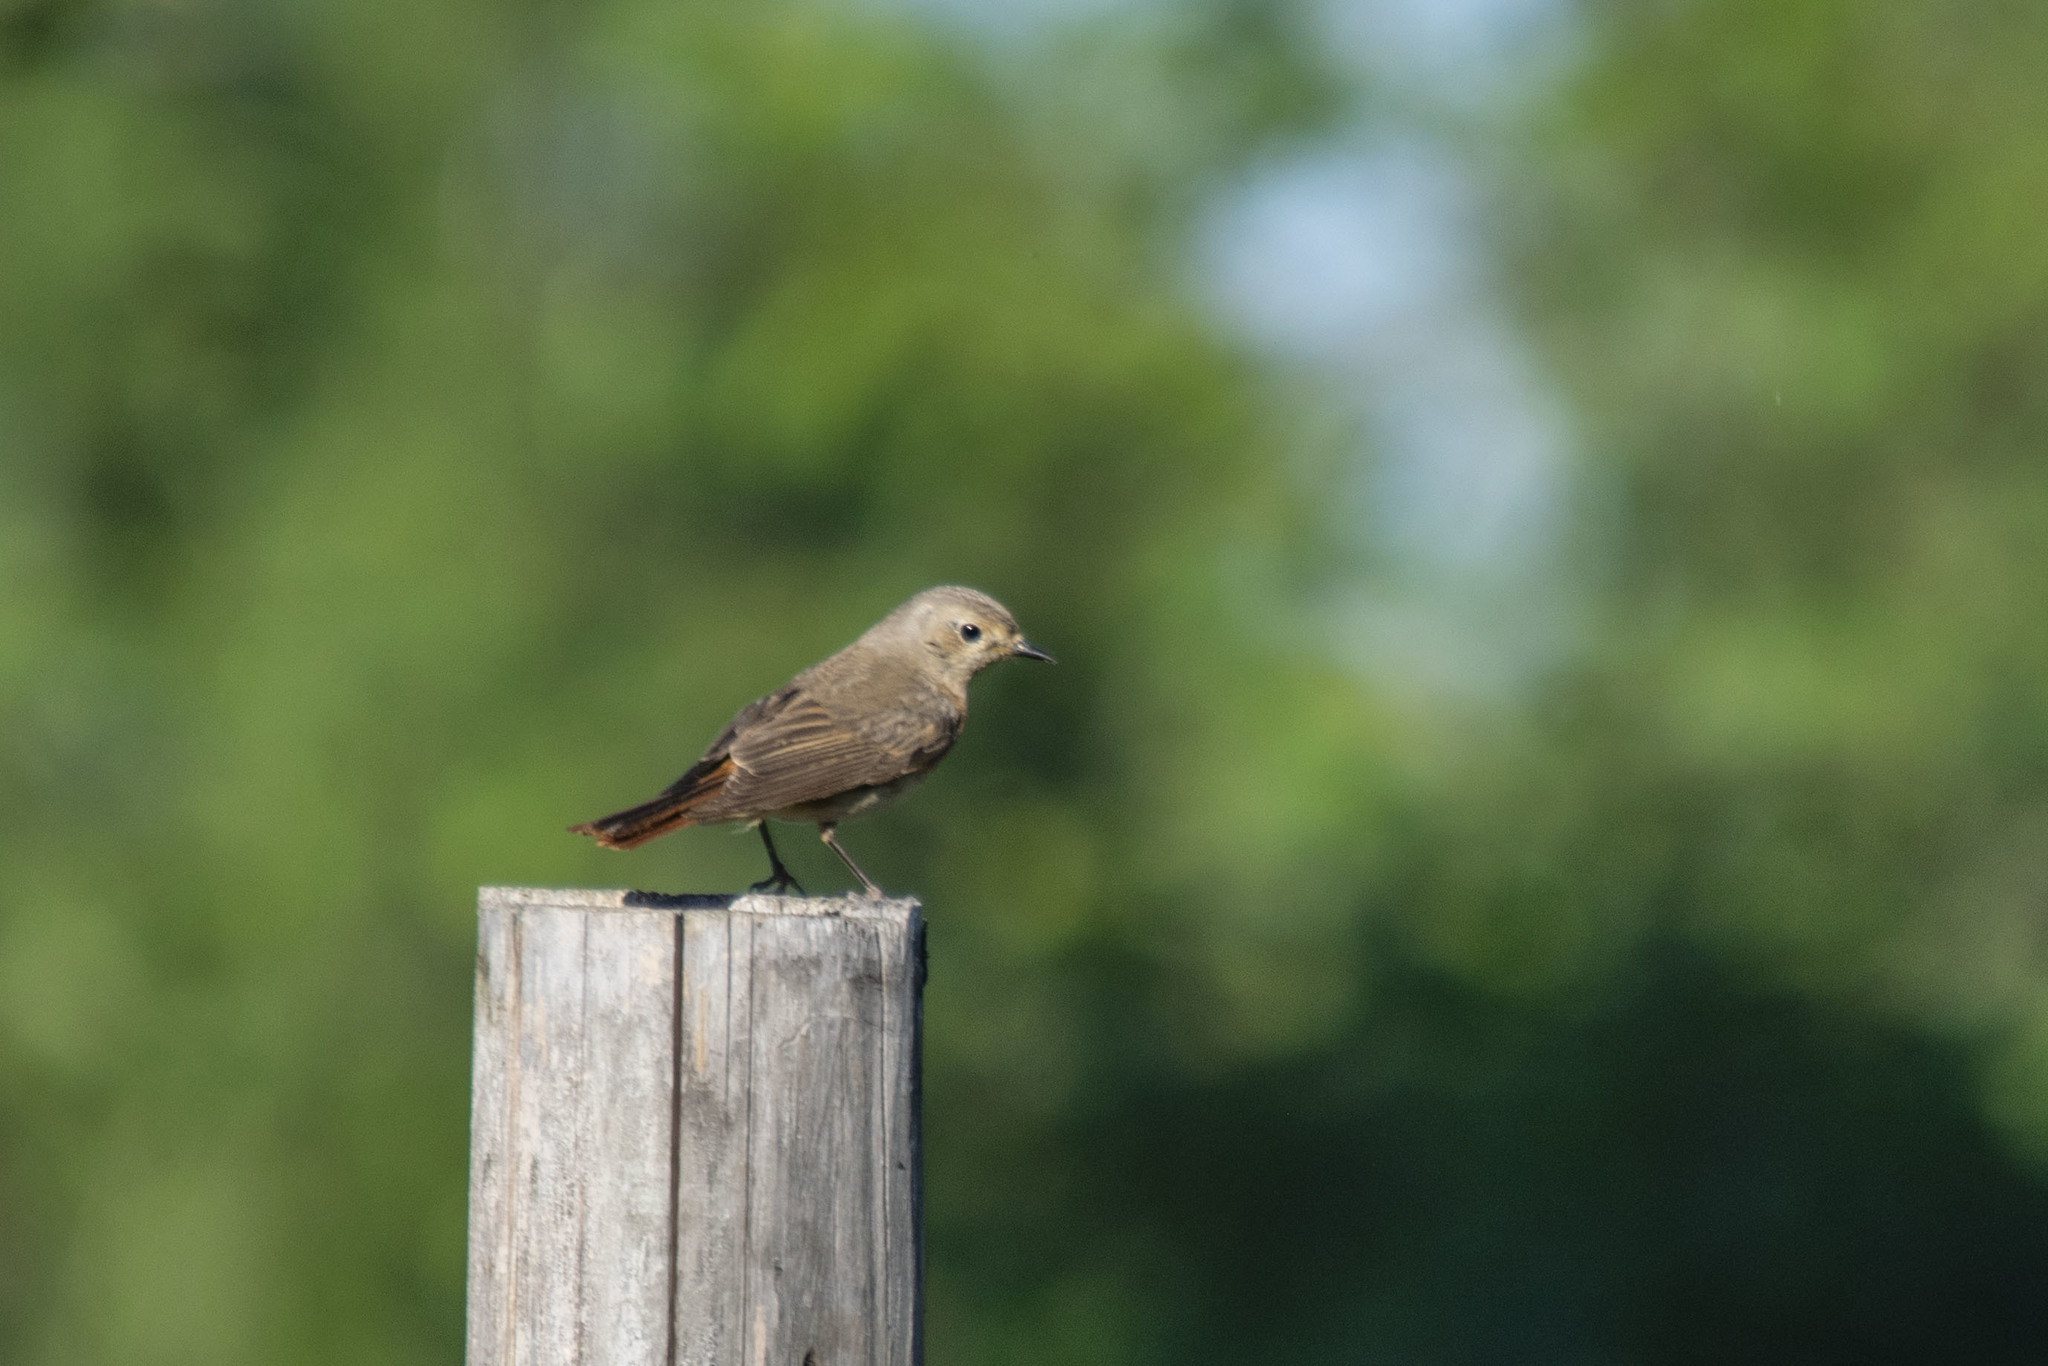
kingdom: Animalia
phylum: Chordata
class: Aves
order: Passeriformes
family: Muscicapidae
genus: Phoenicurus
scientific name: Phoenicurus phoenicurus
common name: Common redstart
